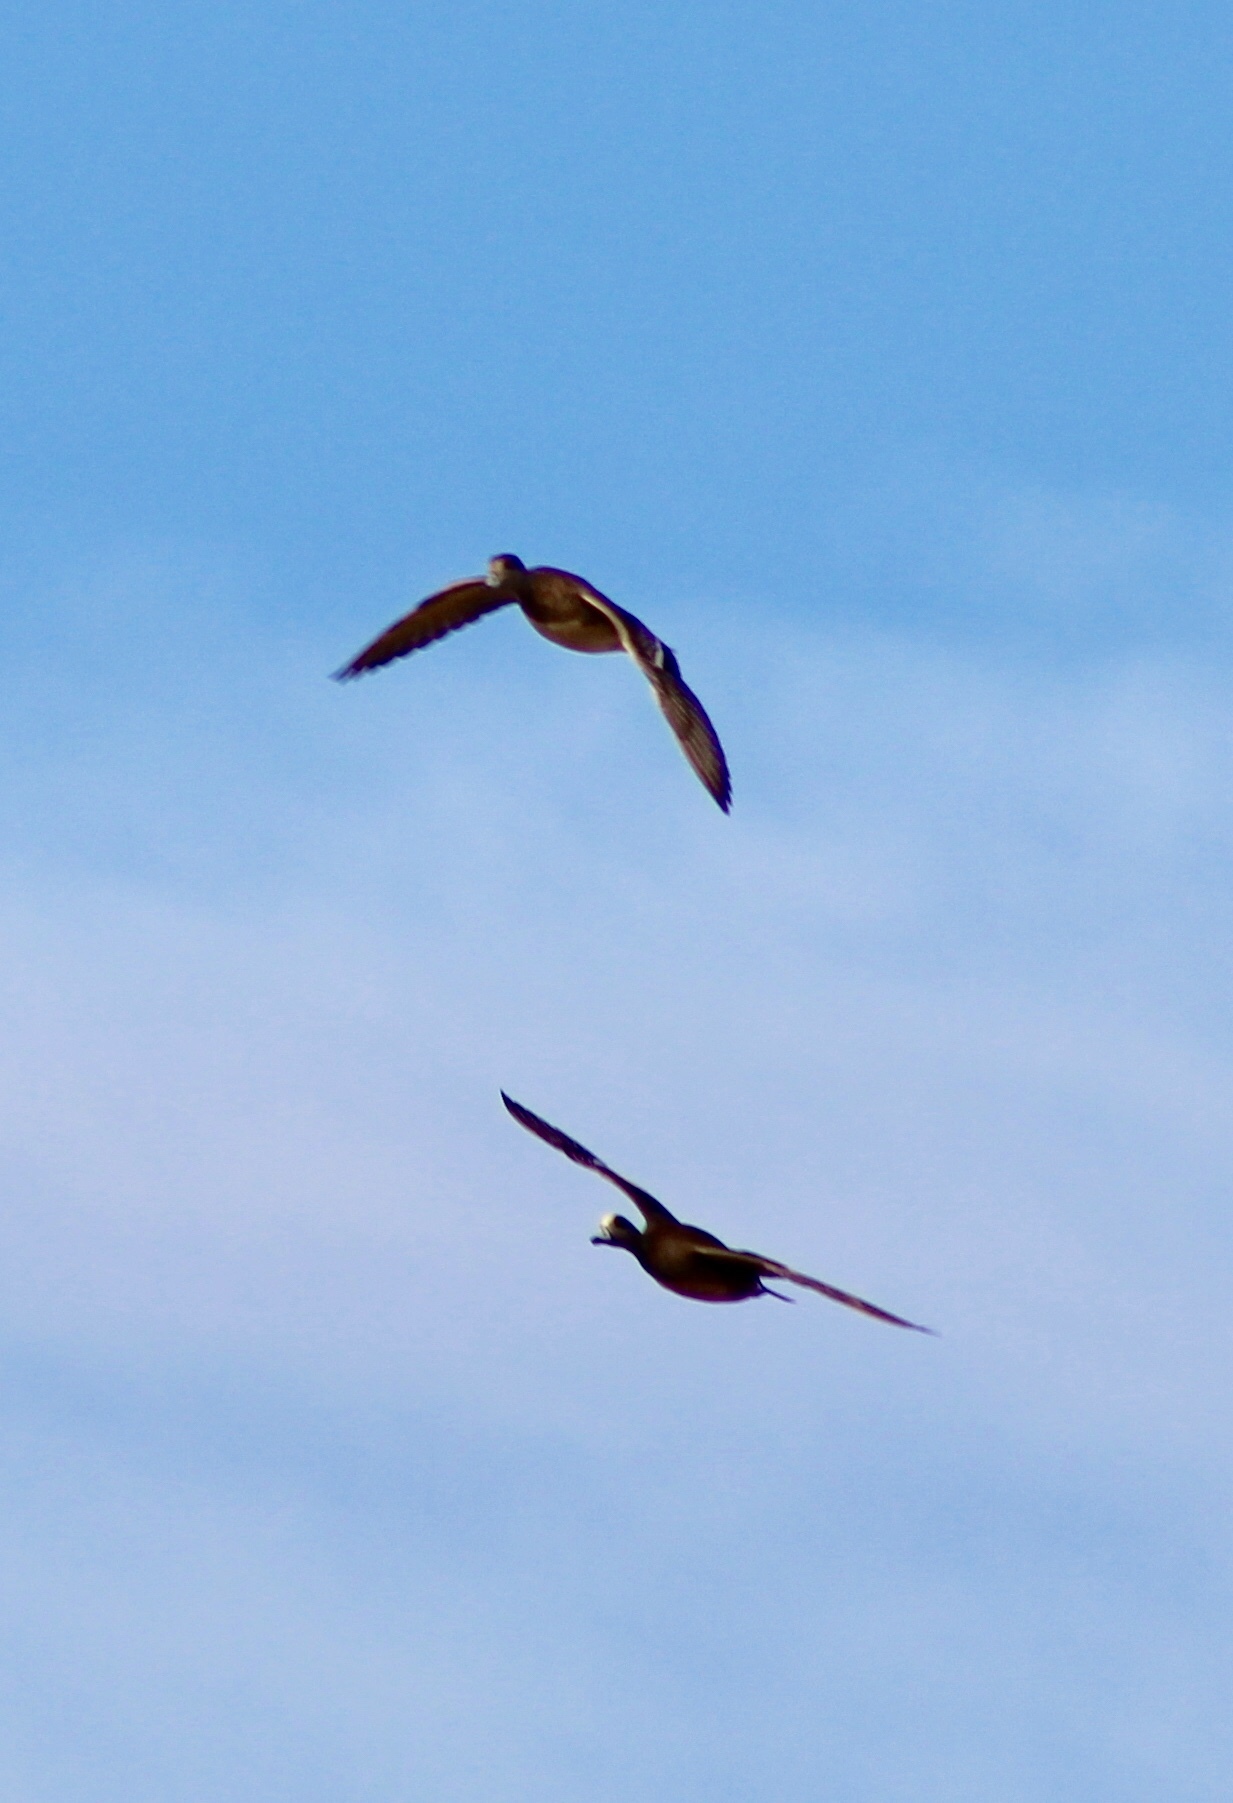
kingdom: Animalia
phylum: Chordata
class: Aves
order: Anseriformes
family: Anatidae
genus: Mareca
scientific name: Mareca americana
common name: American wigeon
